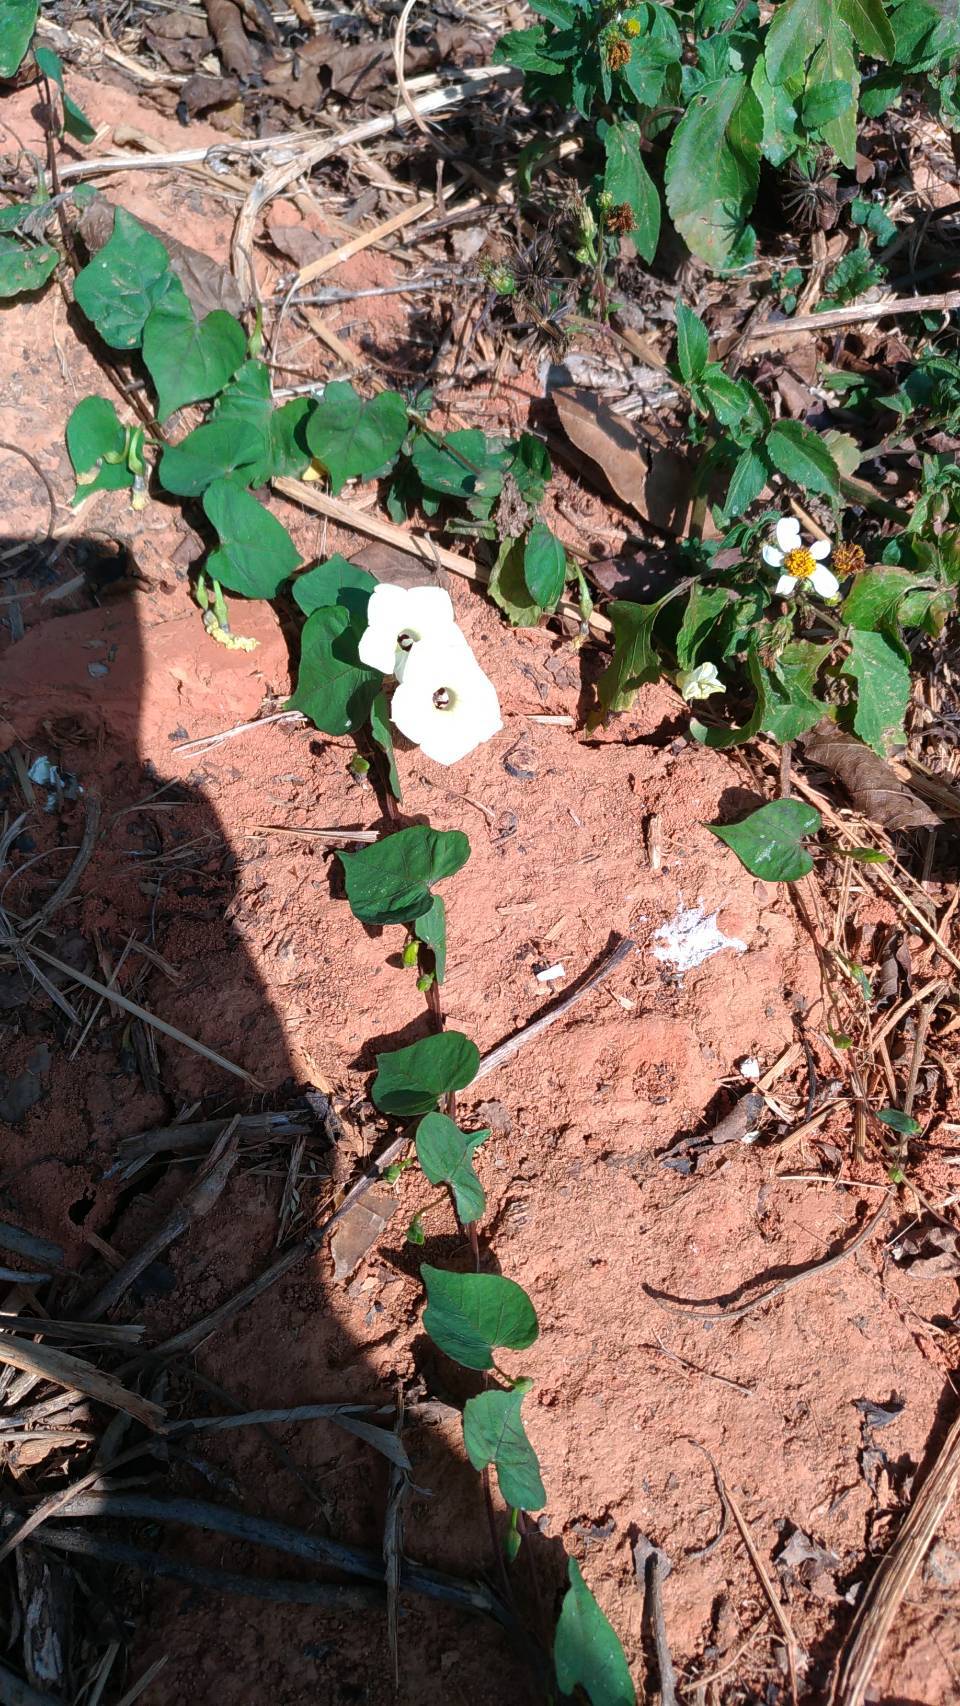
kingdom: Plantae
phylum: Tracheophyta
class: Magnoliopsida
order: Solanales
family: Convolvulaceae
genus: Ipomoea
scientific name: Ipomoea obscura
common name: Obscure morning-glory
